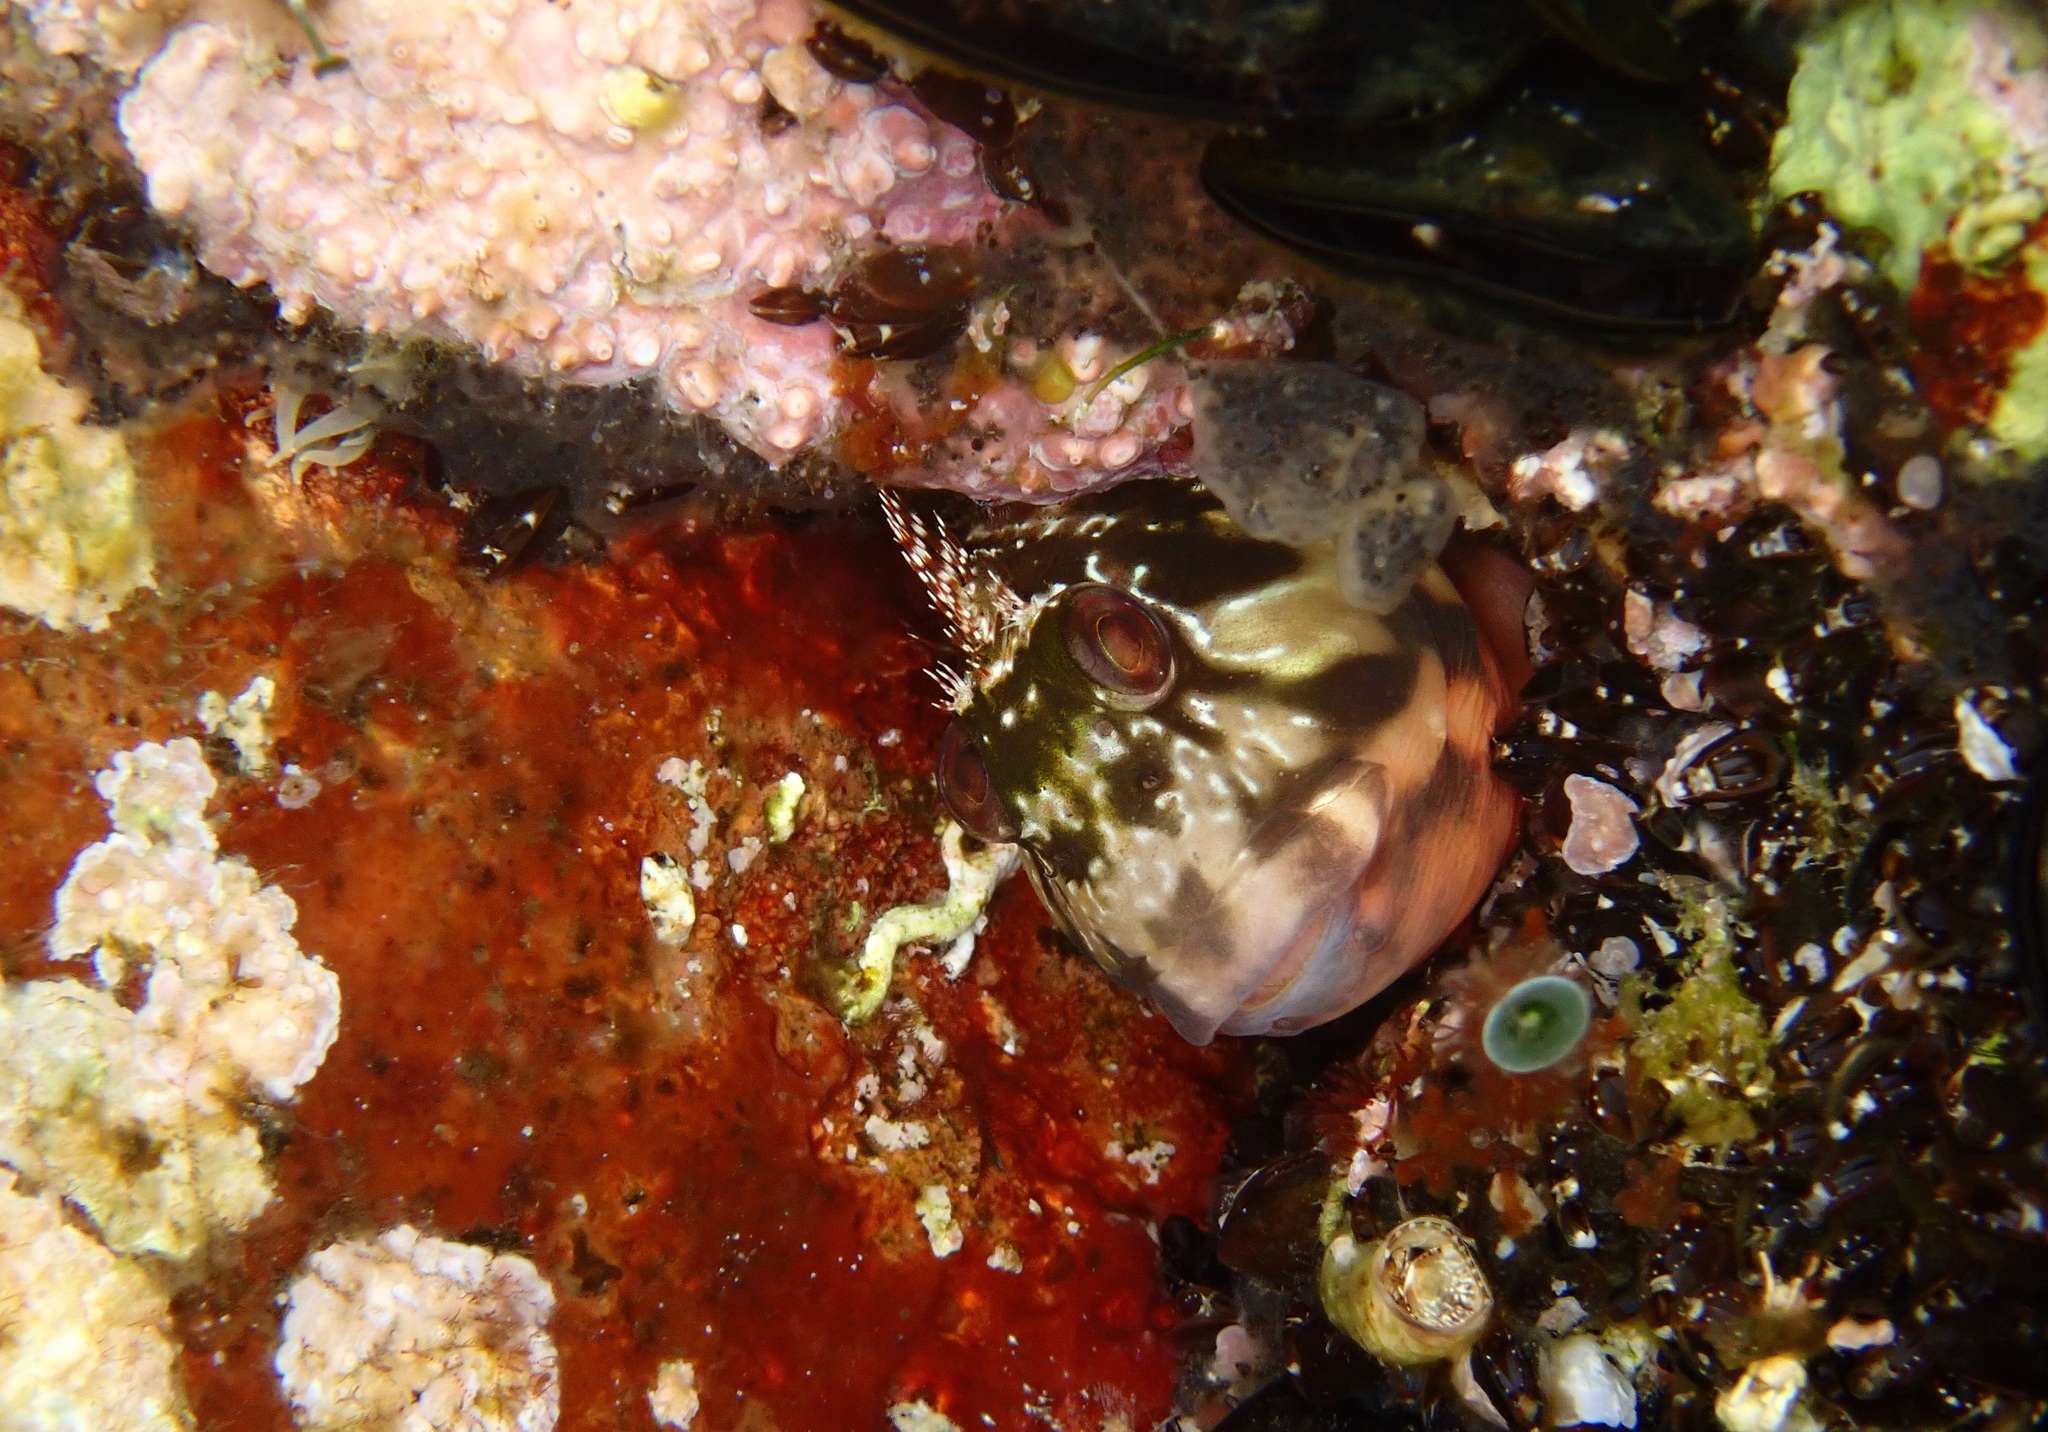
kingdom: Animalia
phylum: Chordata
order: Perciformes
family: Blenniidae
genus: Scartella
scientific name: Scartella cristata
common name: Molly miller
